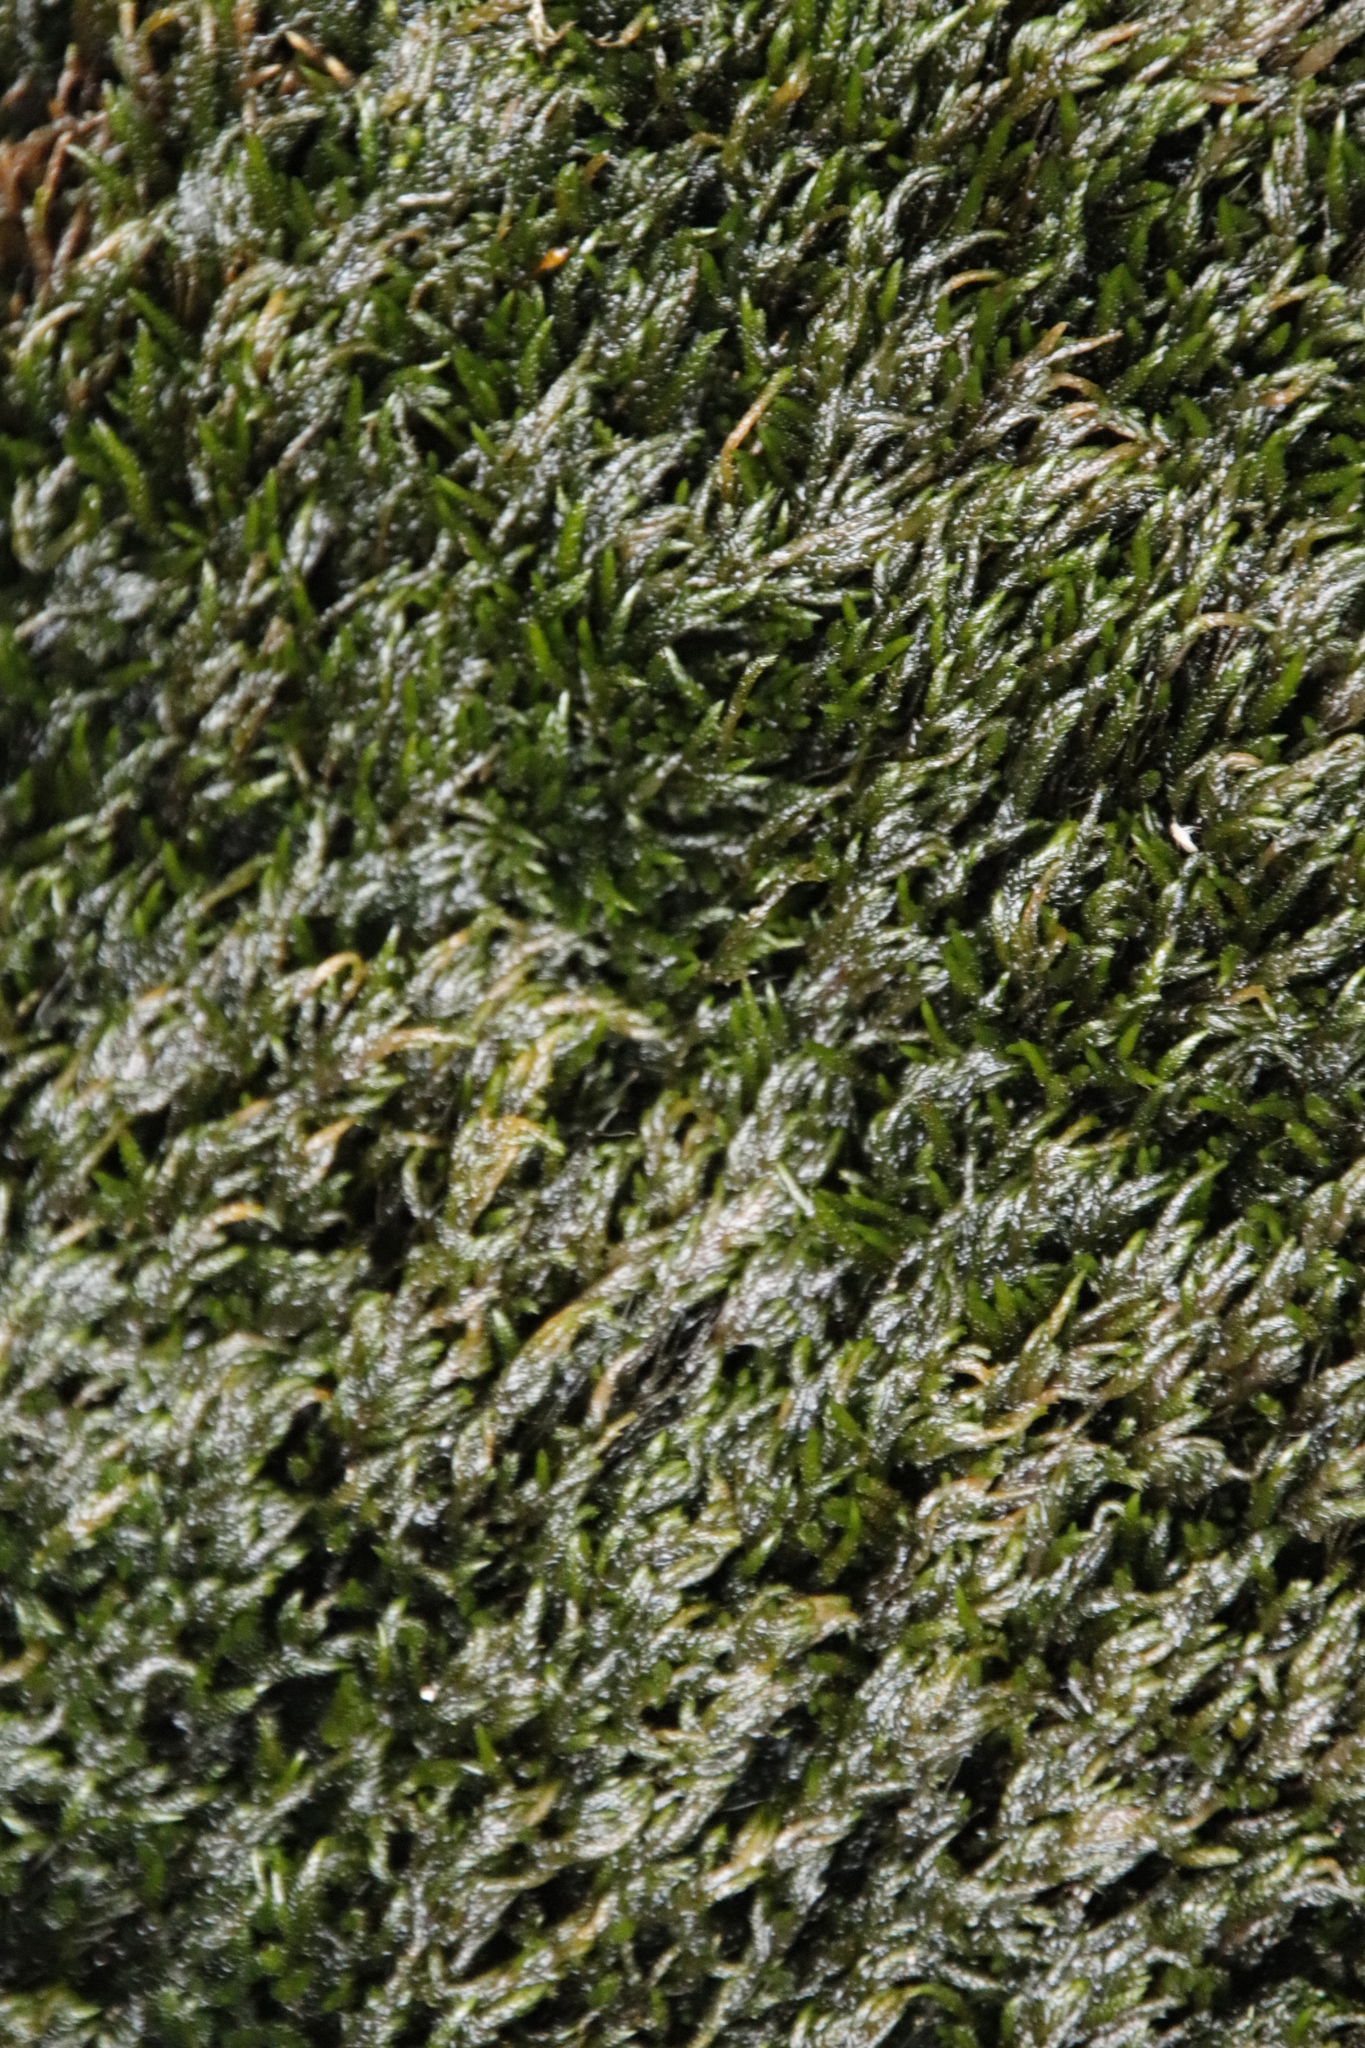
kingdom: Plantae
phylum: Bryophyta
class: Bryopsida
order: Dicranales
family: Dicranaceae
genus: Wardia
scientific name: Wardia hygrometrica
